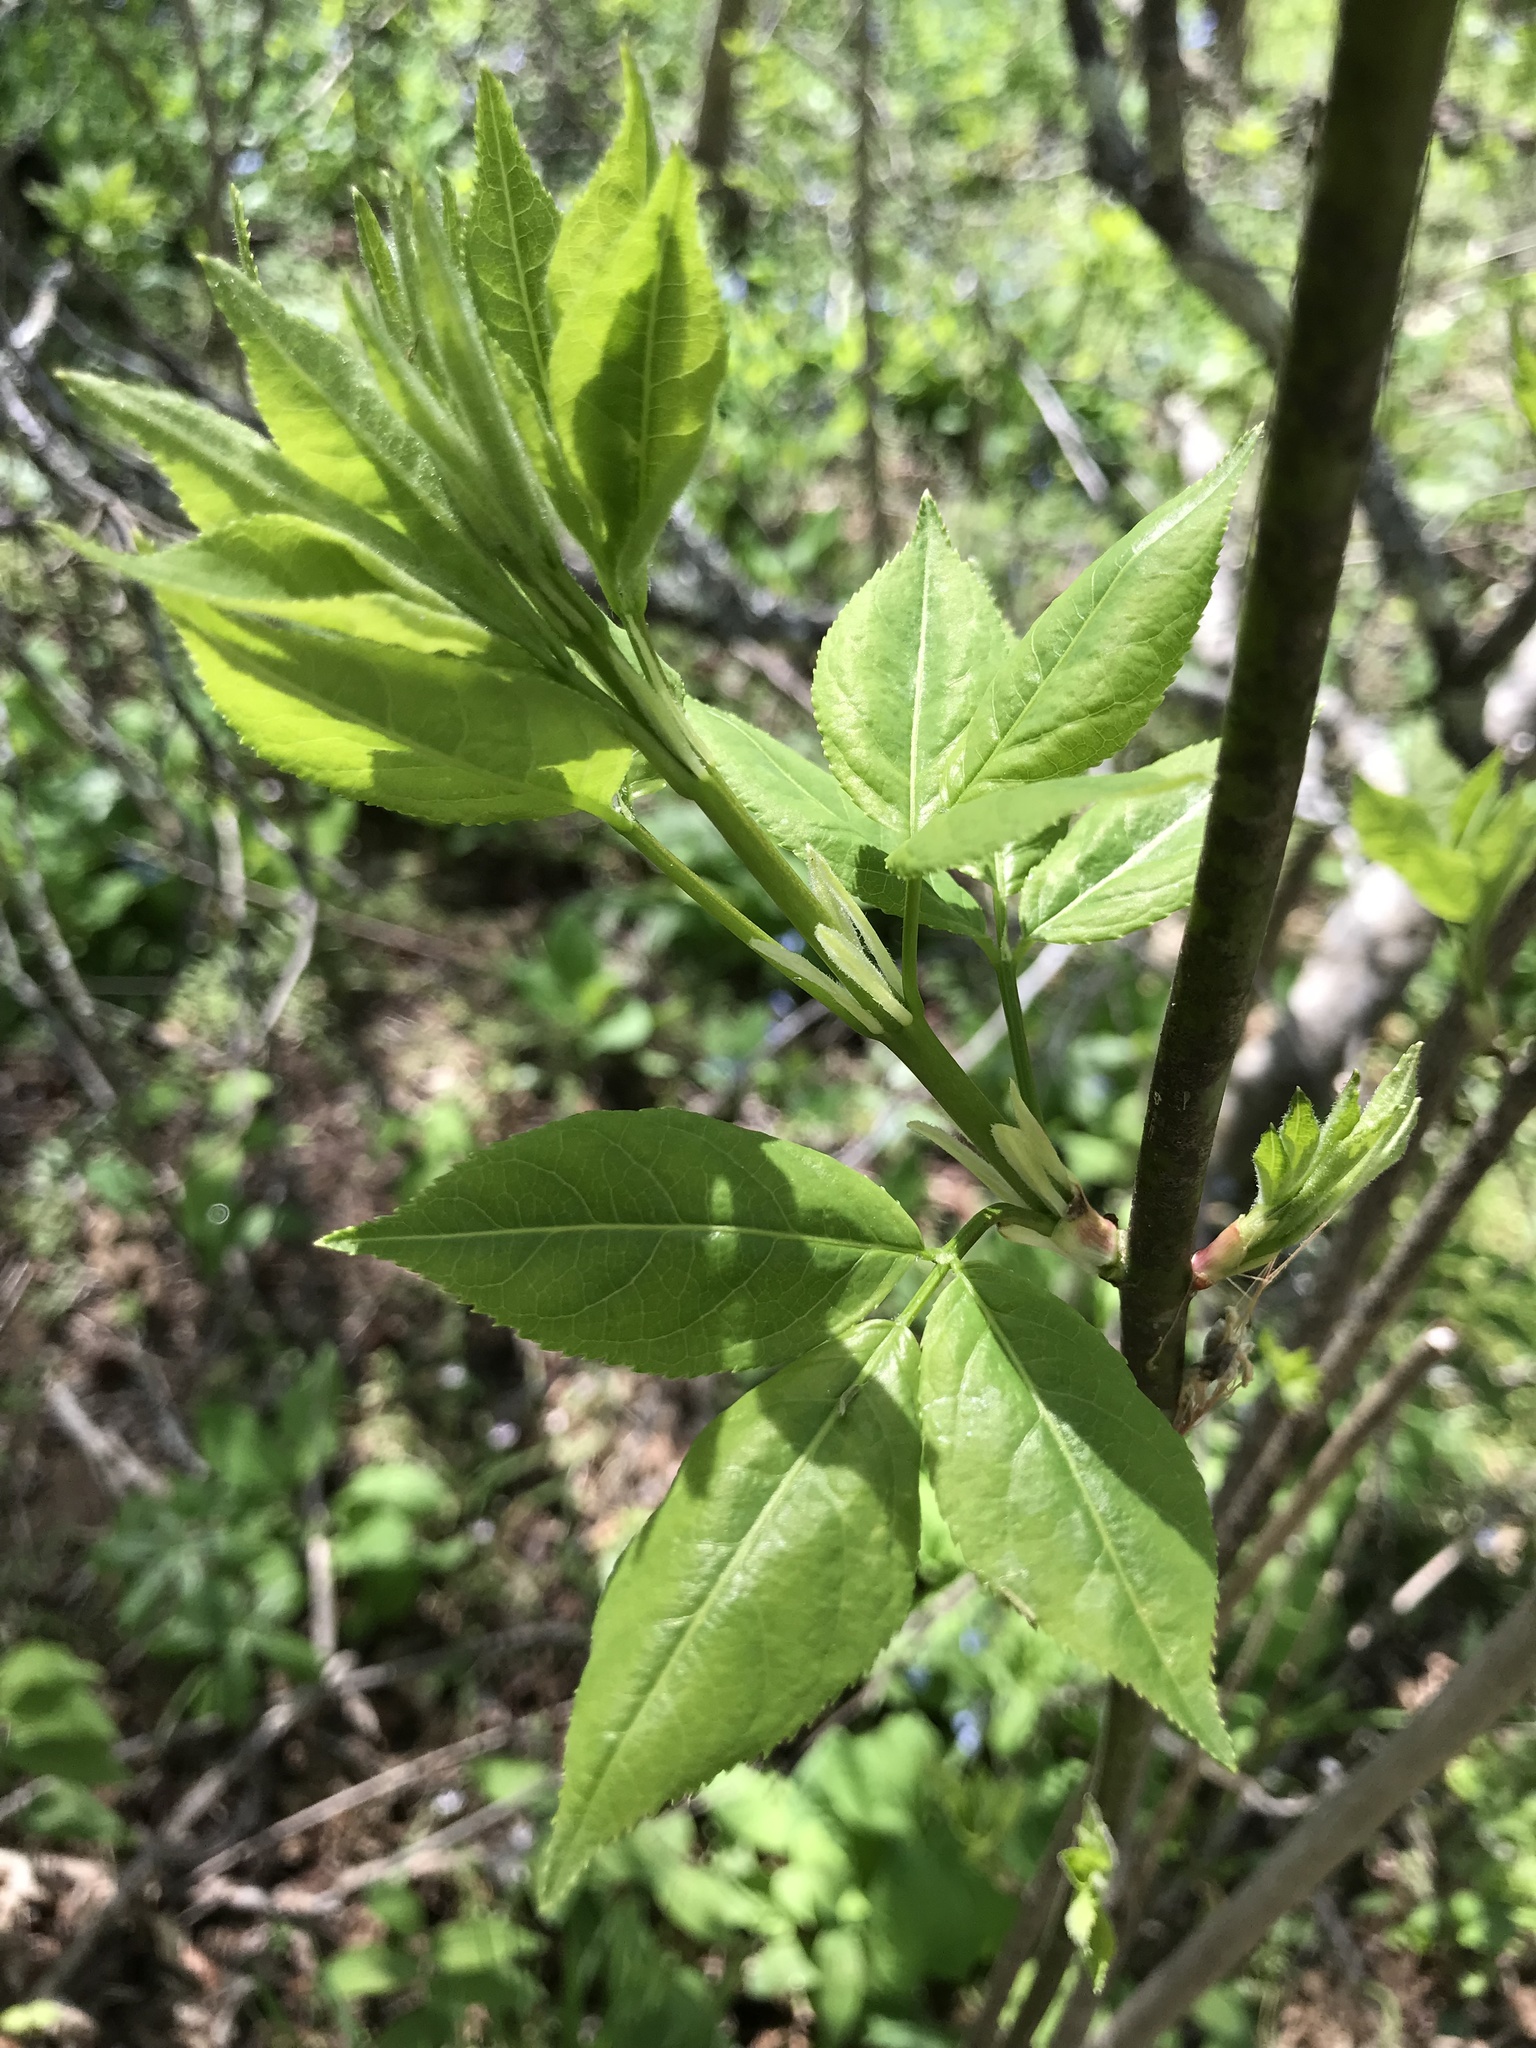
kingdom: Plantae
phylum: Tracheophyta
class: Magnoliopsida
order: Crossosomatales
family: Staphyleaceae
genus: Staphylea
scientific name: Staphylea trifolia
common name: American bladdernut
